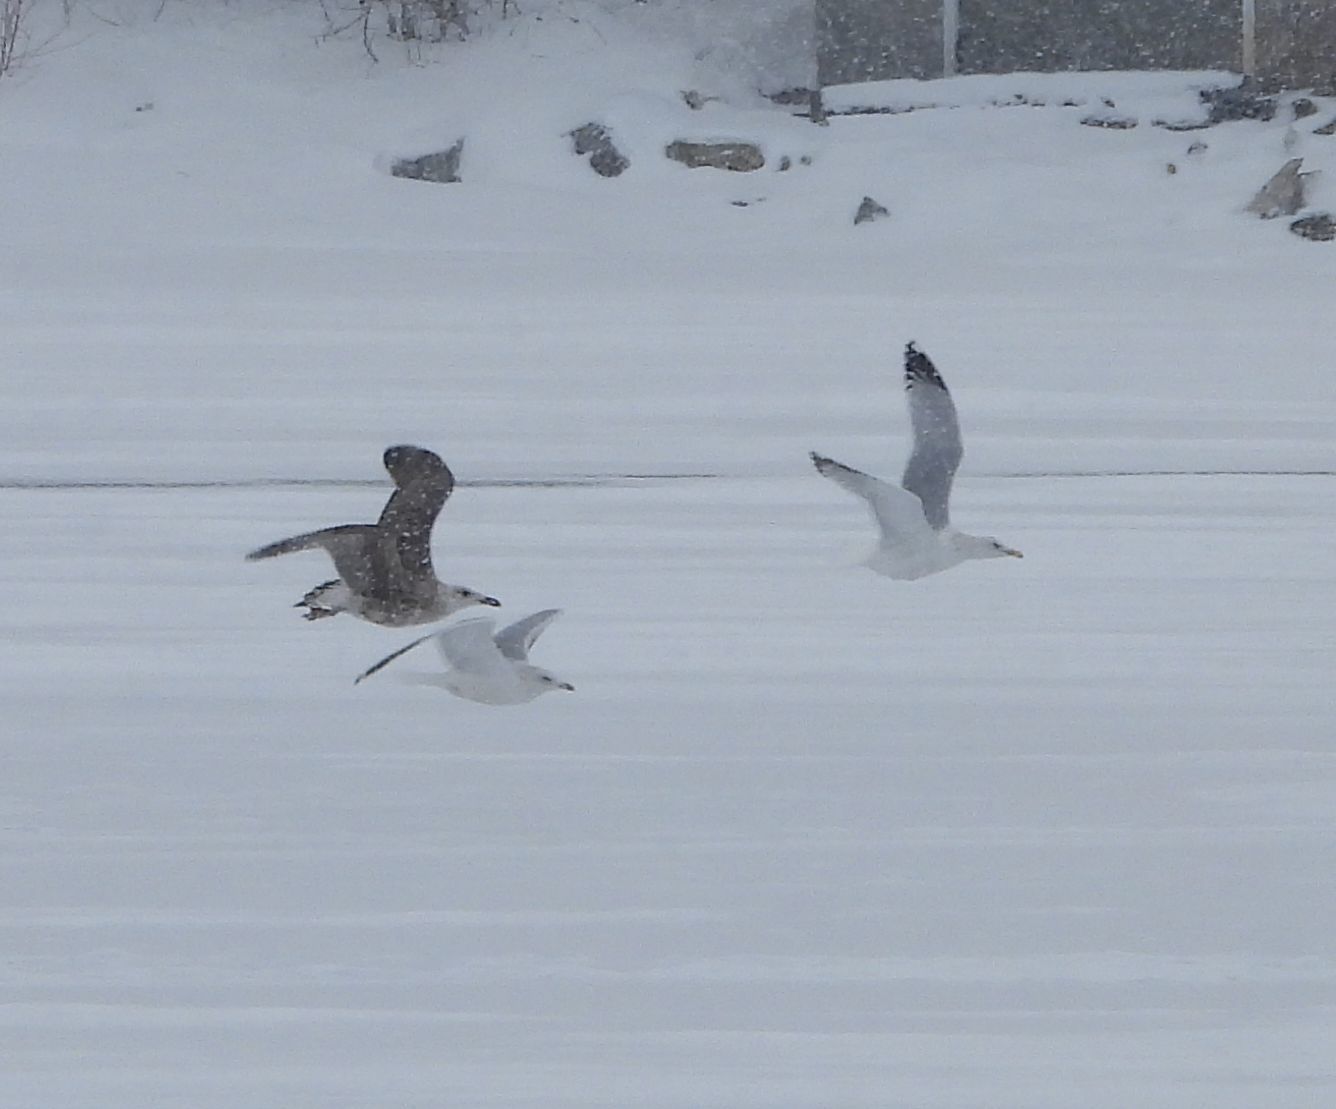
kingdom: Animalia
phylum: Chordata
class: Aves
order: Charadriiformes
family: Laridae
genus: Larus
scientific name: Larus argentatus
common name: Herring gull
